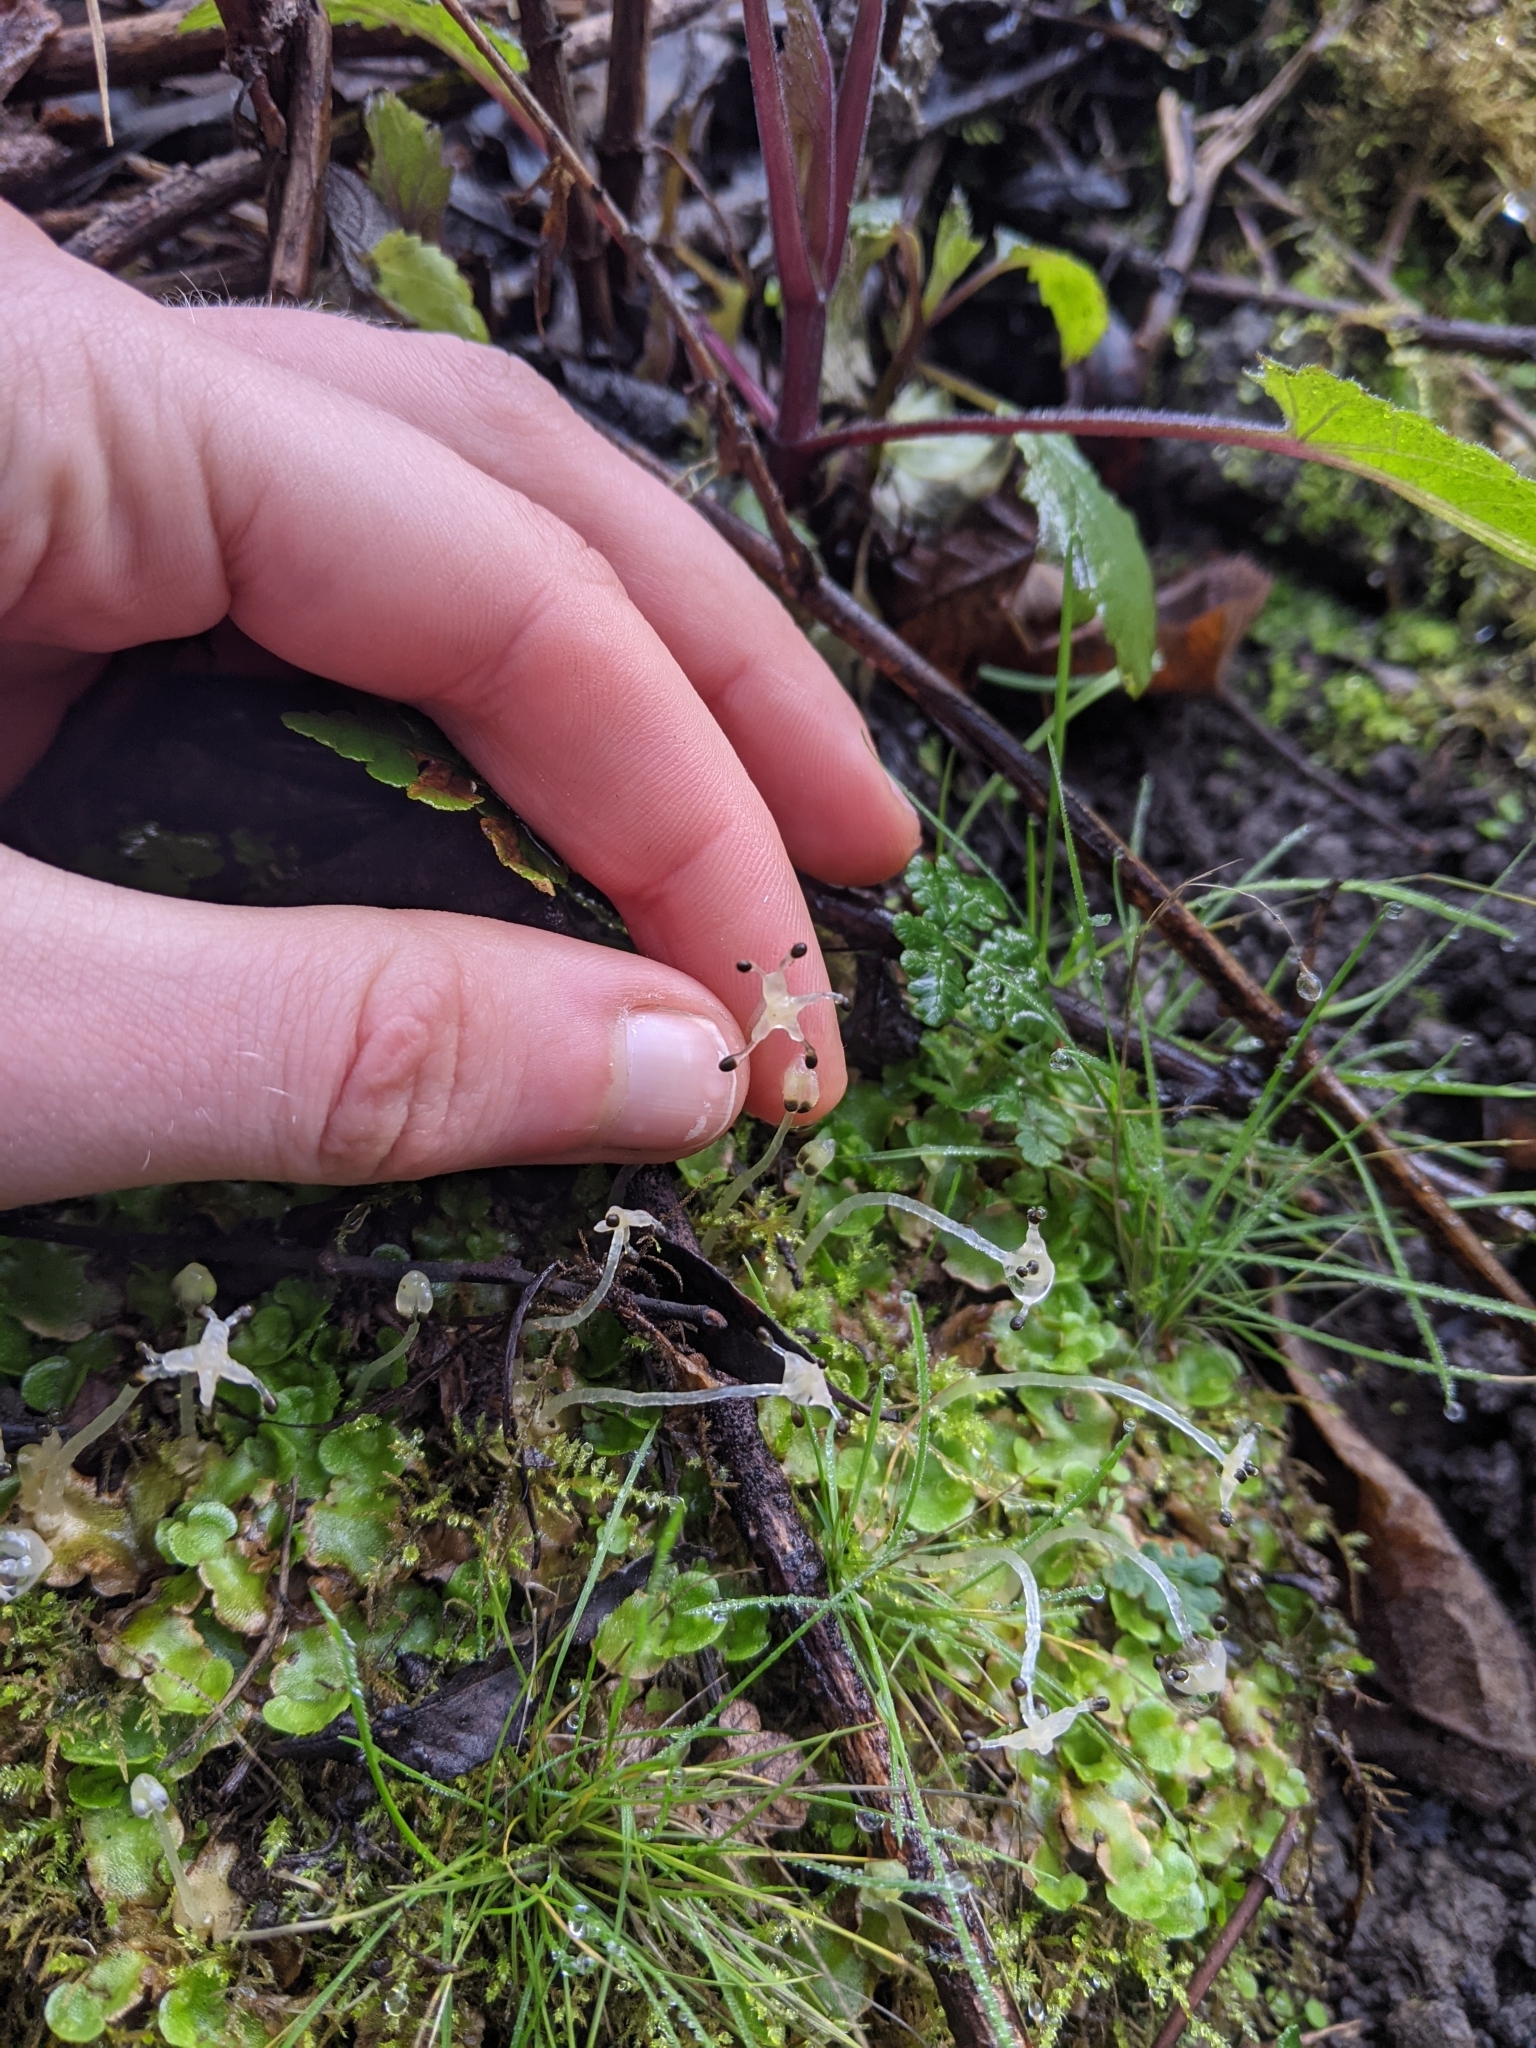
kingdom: Plantae
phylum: Marchantiophyta
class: Marchantiopsida
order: Lunulariales
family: Lunulariaceae
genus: Lunularia
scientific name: Lunularia cruciata
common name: Crescent-cup liverwort
